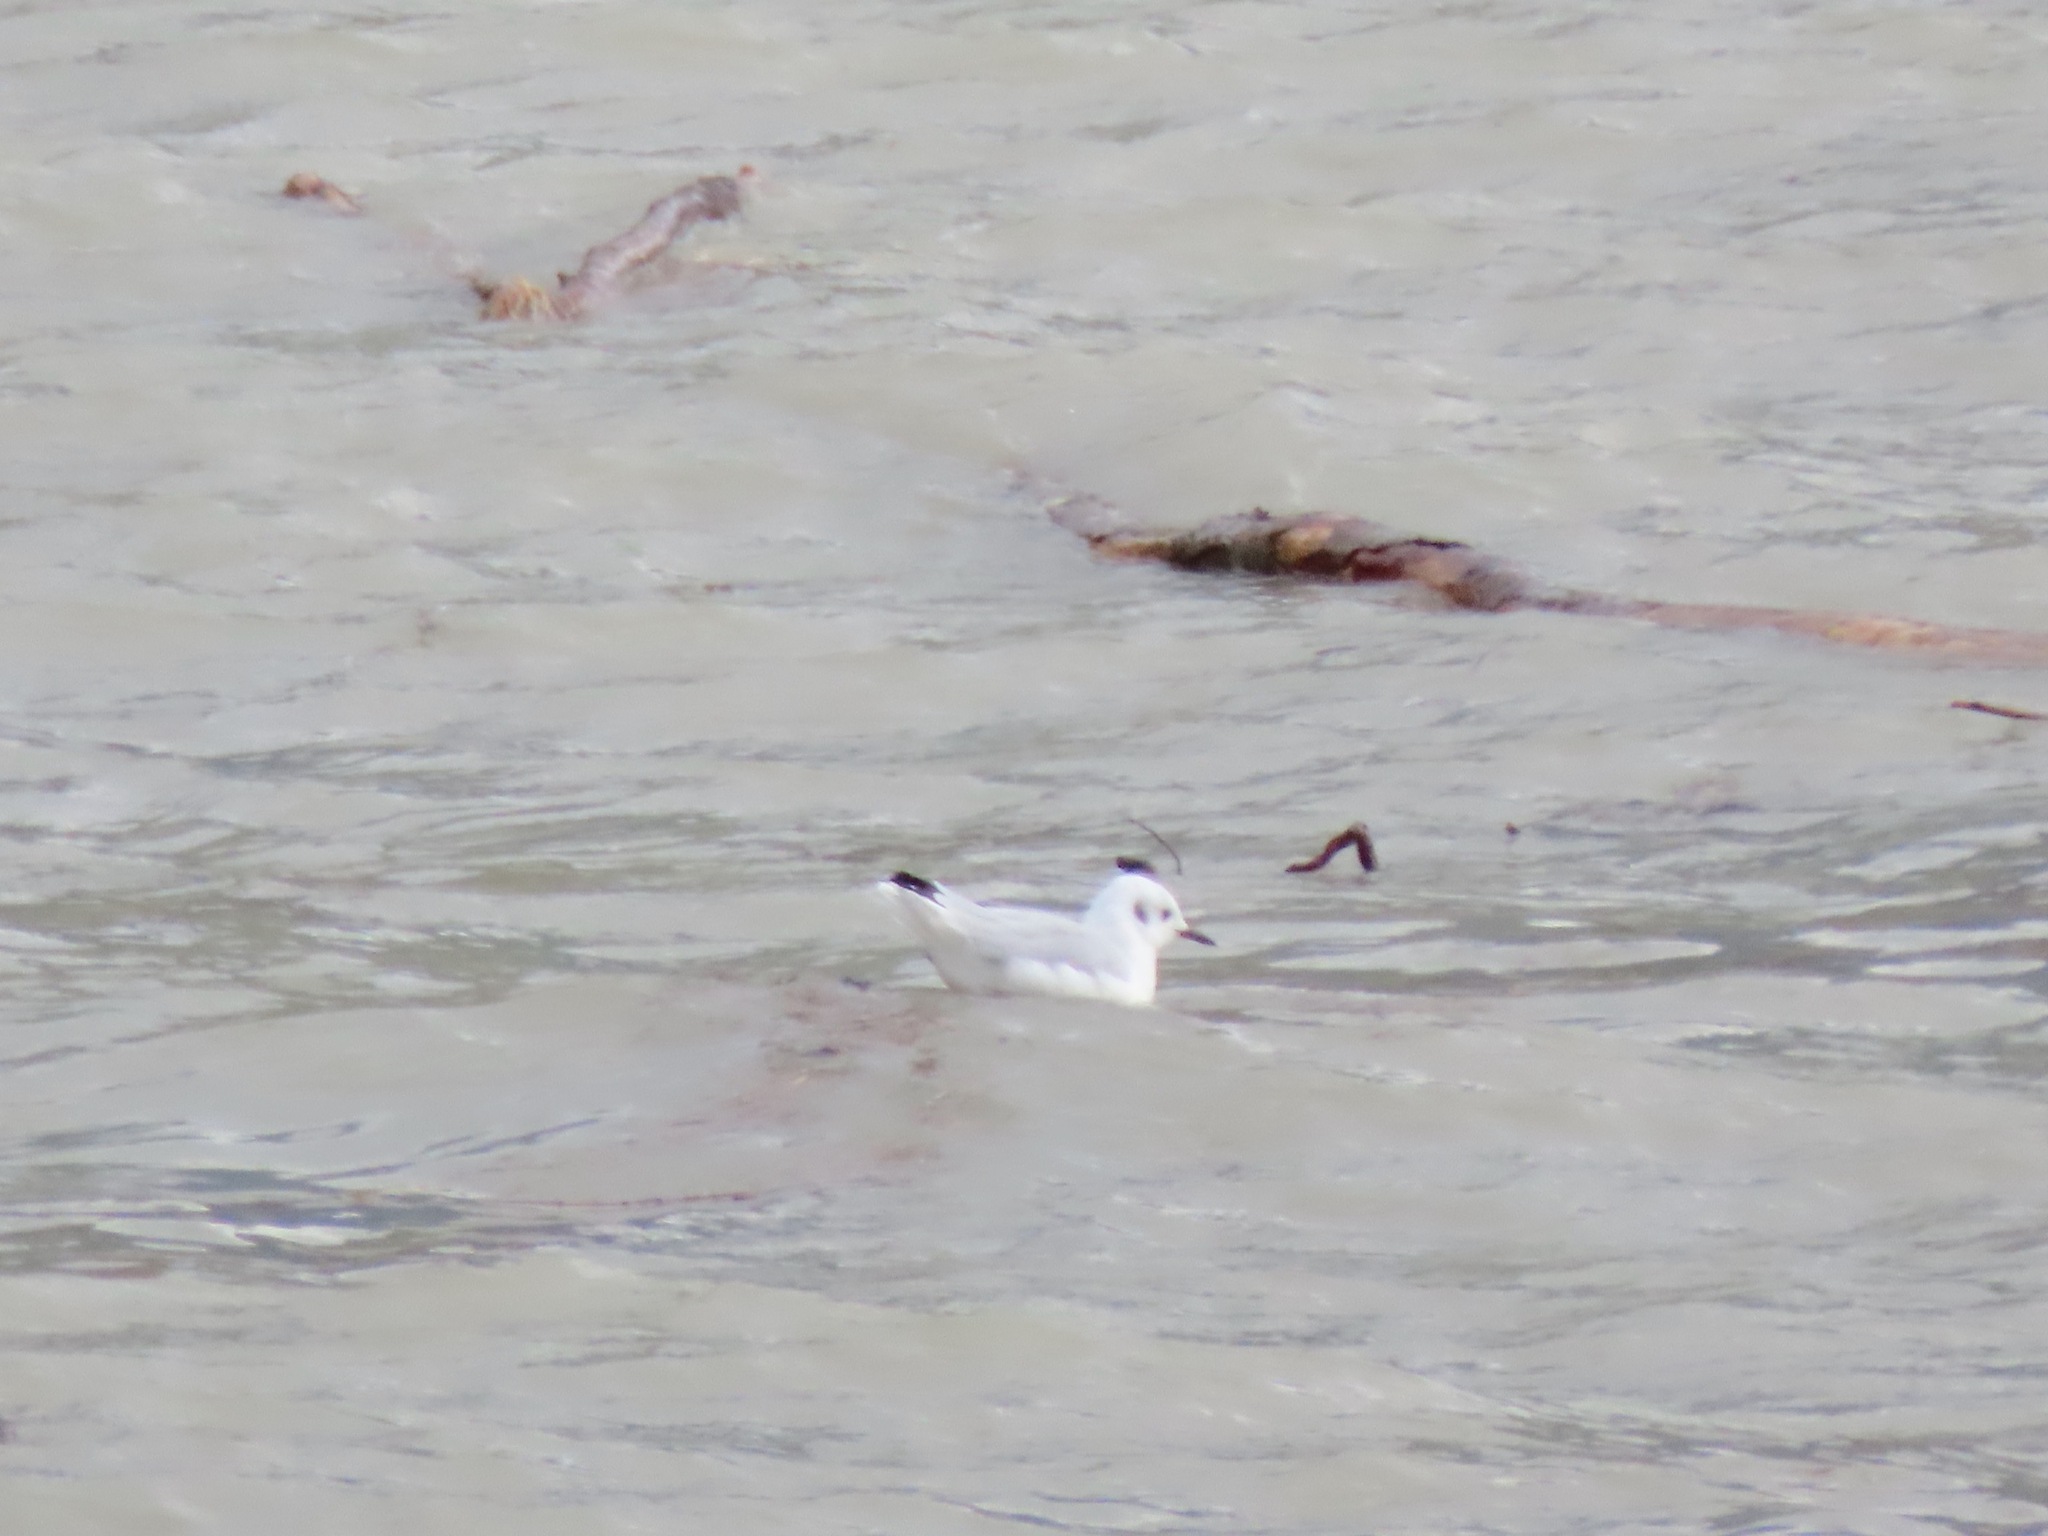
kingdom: Animalia
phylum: Chordata
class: Aves
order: Charadriiformes
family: Laridae
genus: Chroicocephalus
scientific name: Chroicocephalus philadelphia
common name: Bonaparte's gull
